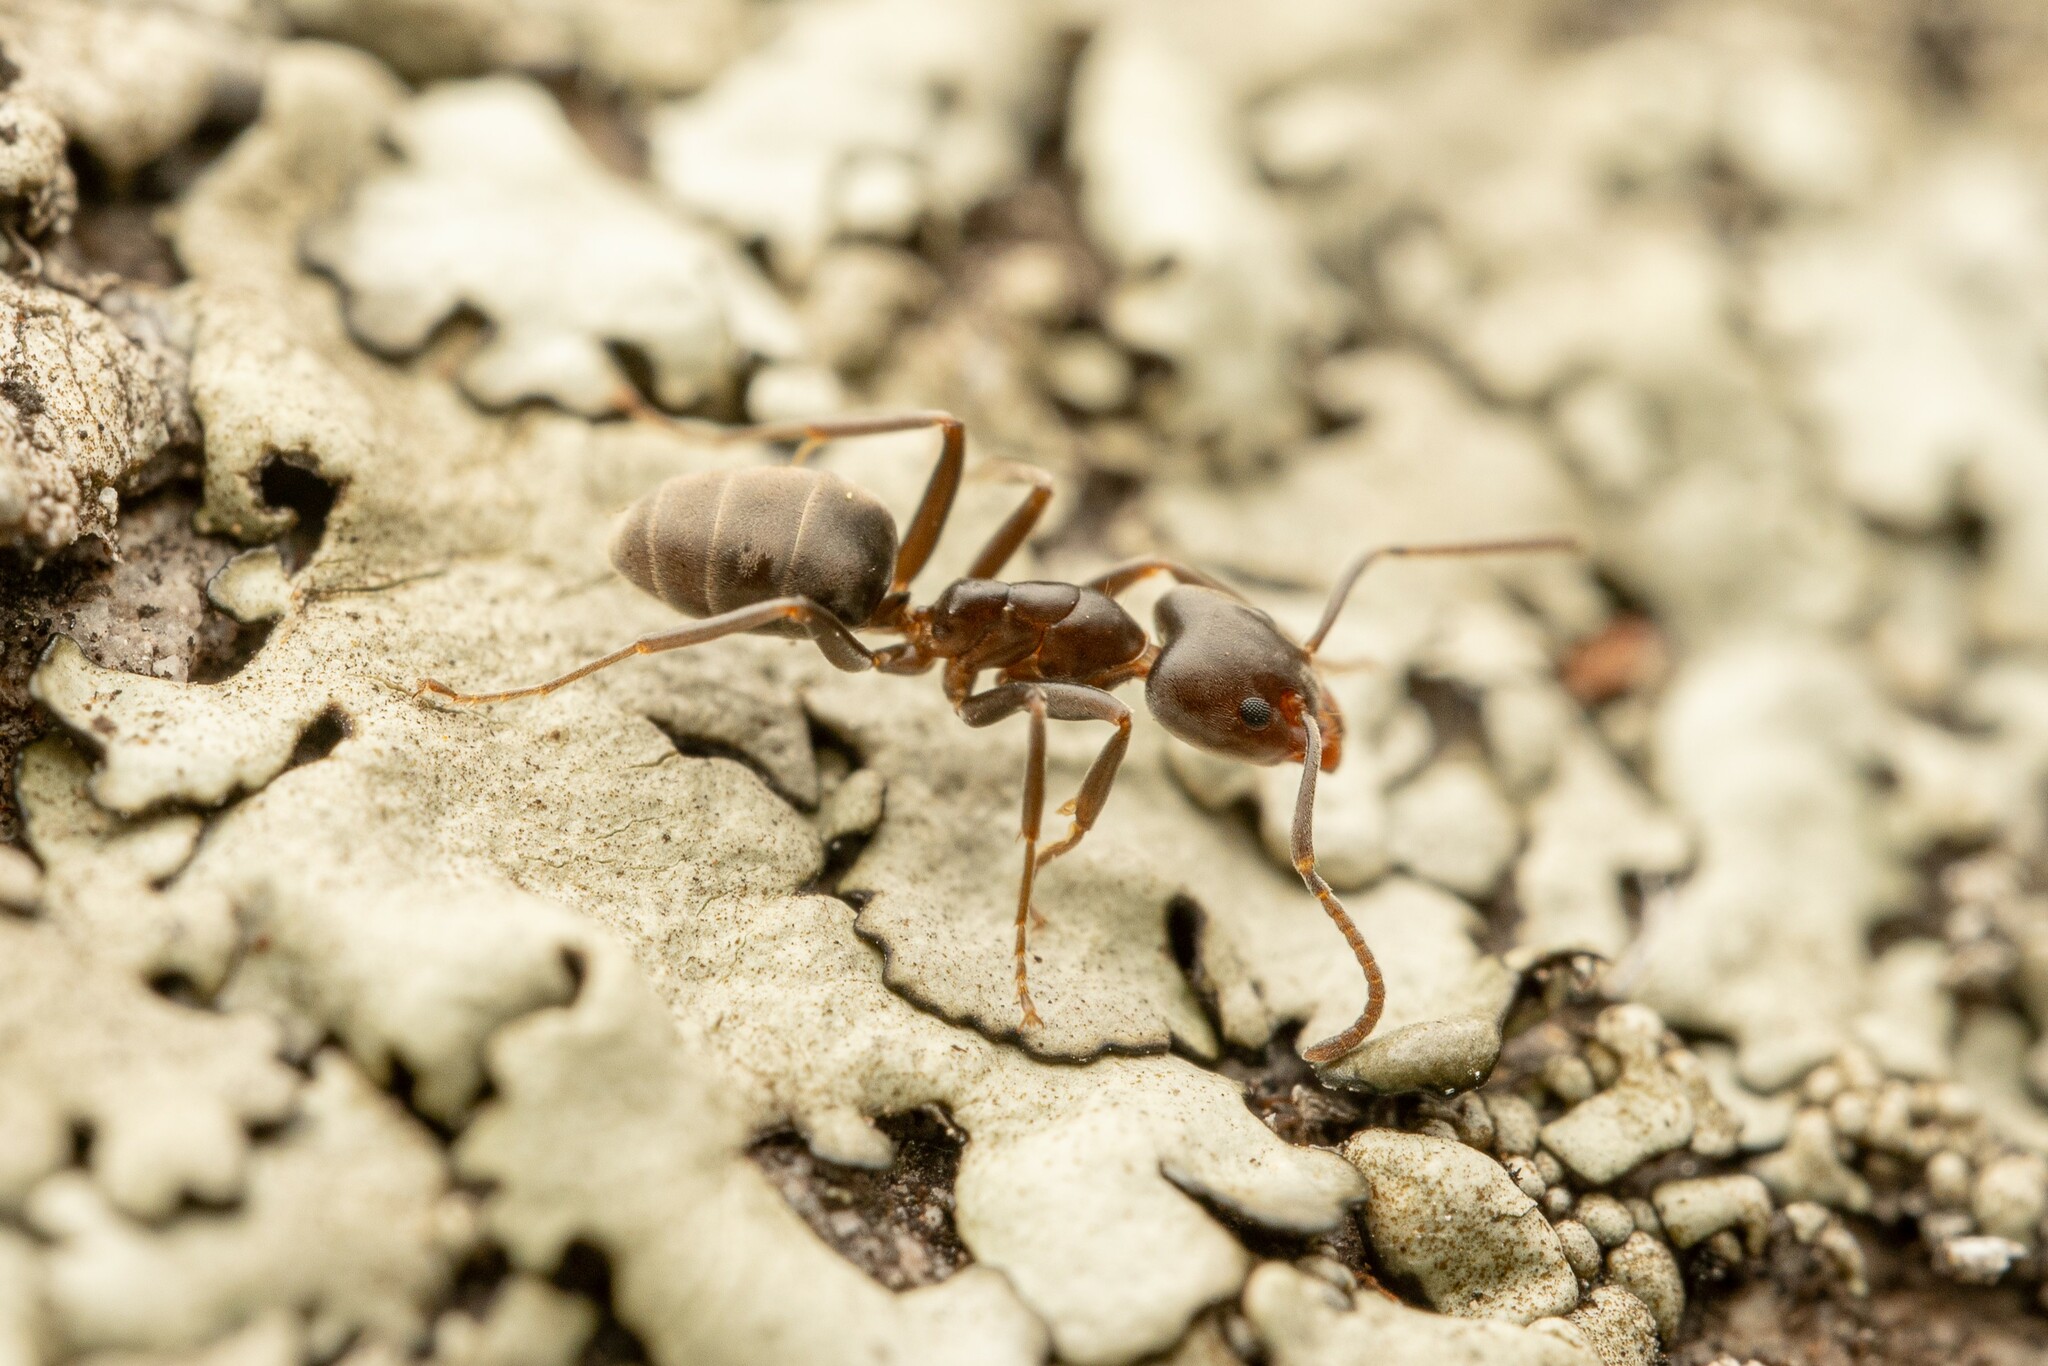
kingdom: Animalia
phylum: Arthropoda
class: Insecta
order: Hymenoptera
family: Formicidae
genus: Liometopum
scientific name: Liometopum luctuosum
